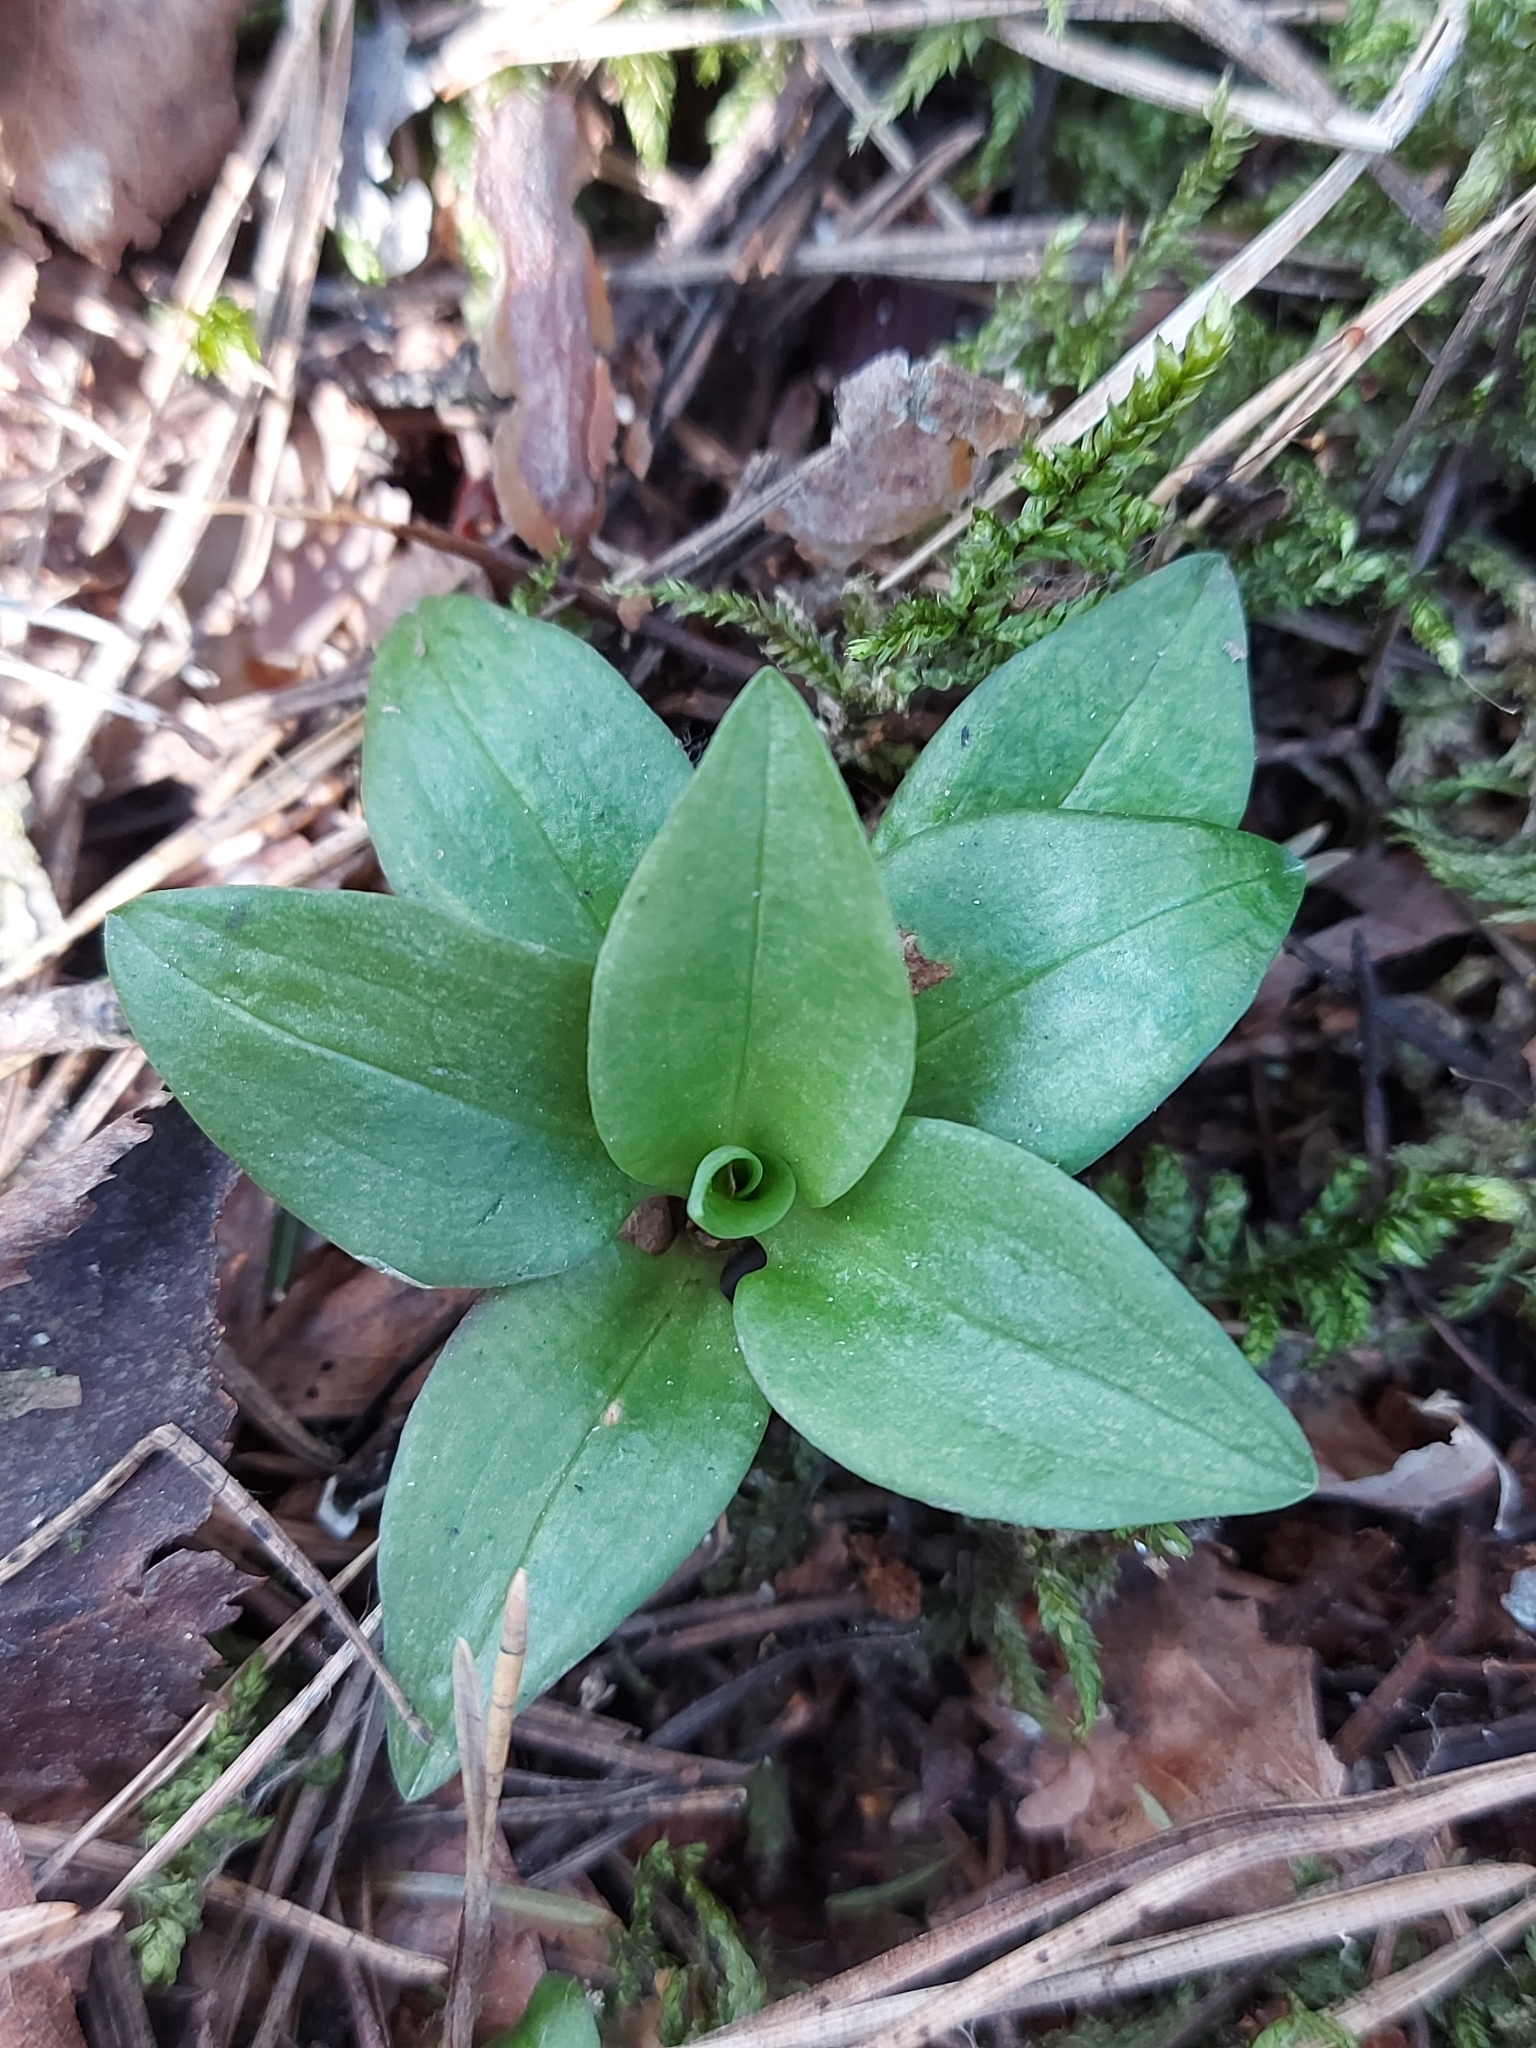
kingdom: Plantae
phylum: Tracheophyta
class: Liliopsida
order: Asparagales
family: Orchidaceae
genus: Goodyera
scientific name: Goodyera repens
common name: Creeping lady's-tresses
